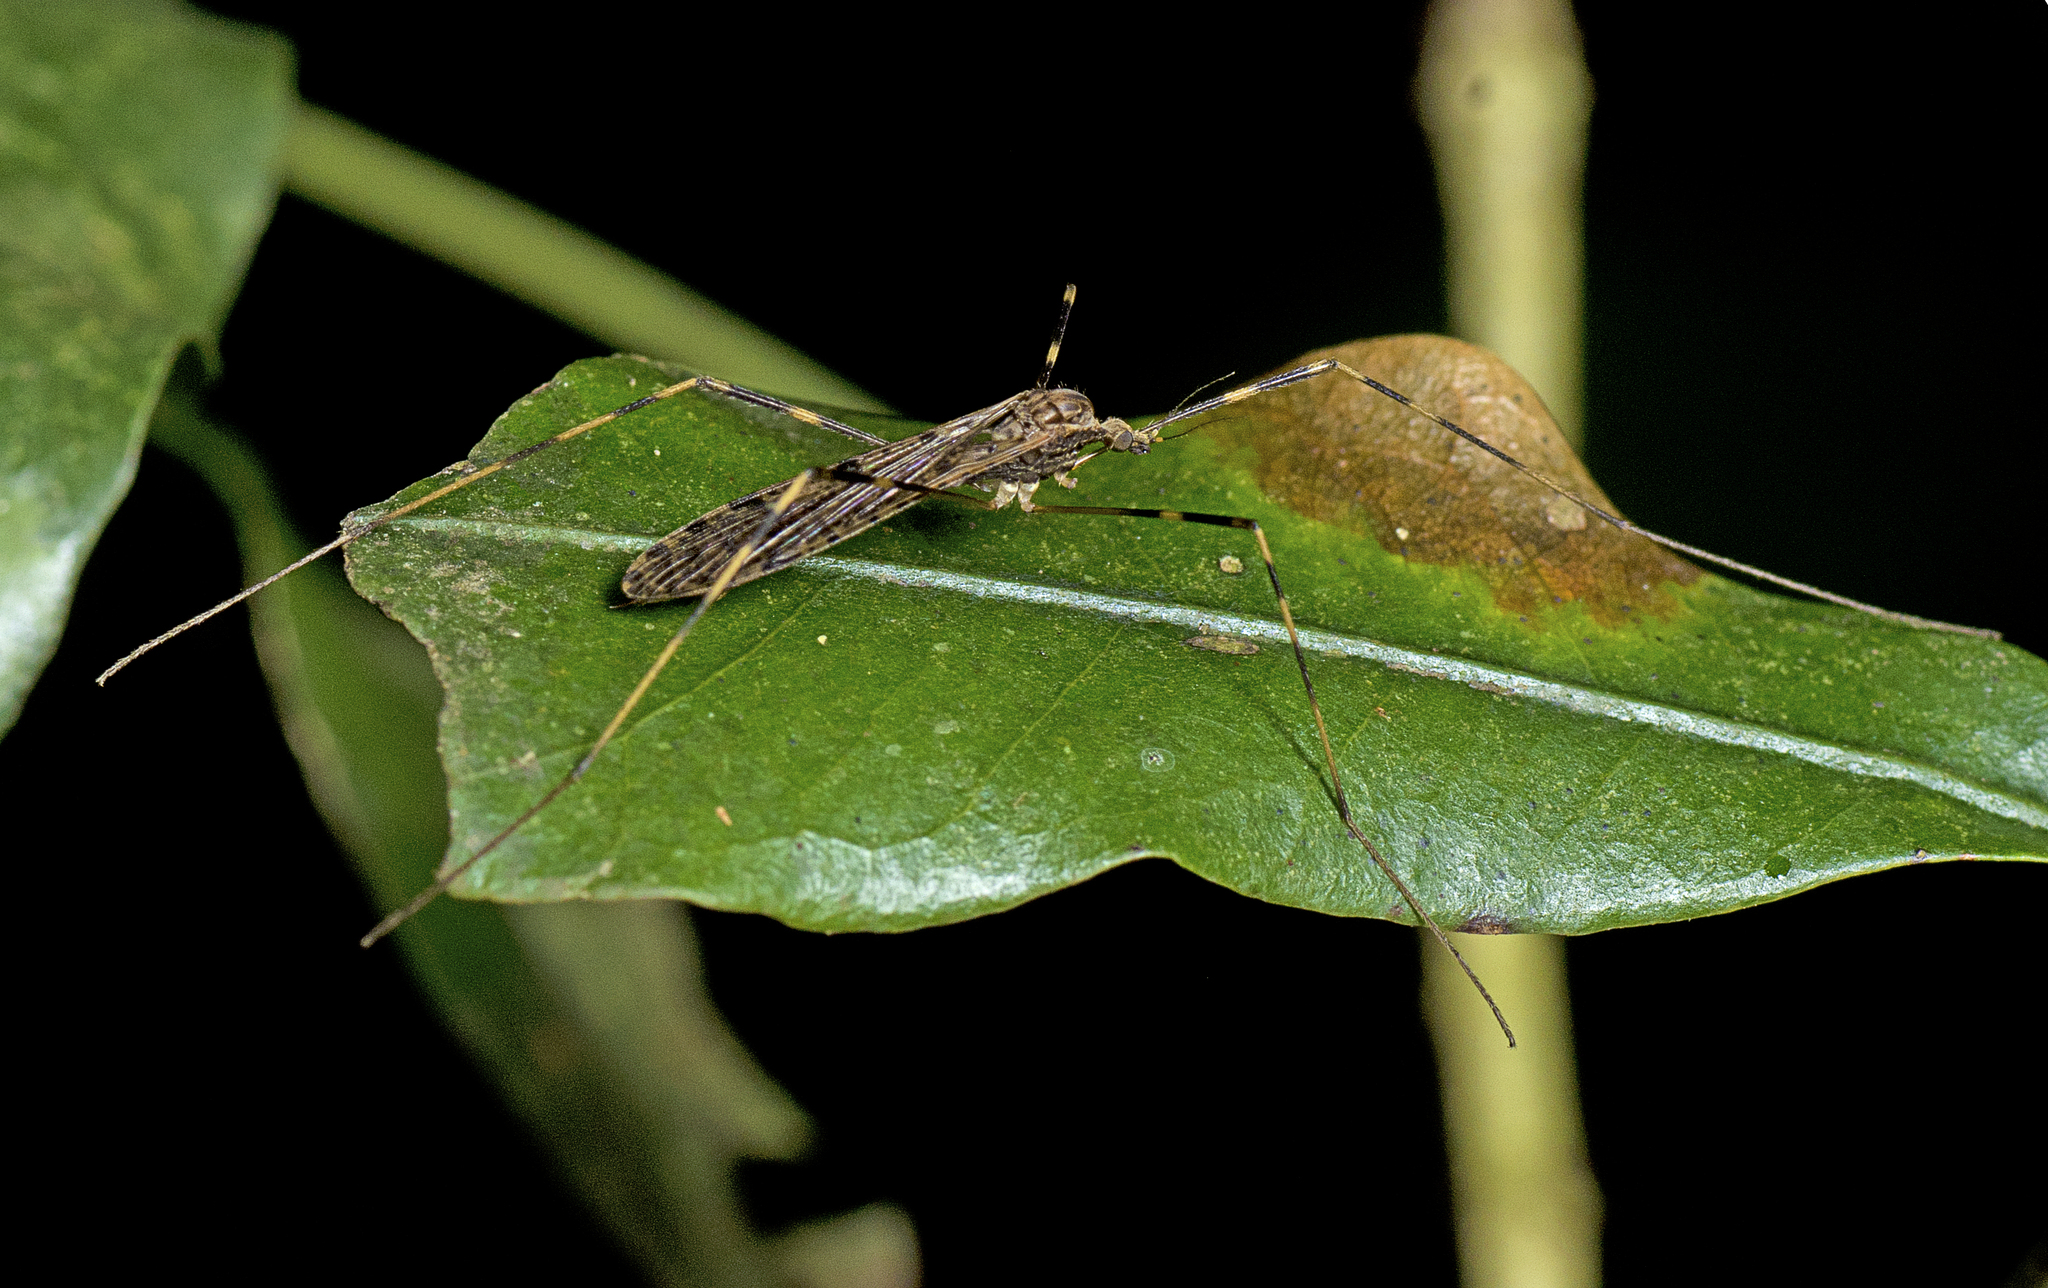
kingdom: Animalia
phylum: Arthropoda
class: Insecta
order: Diptera
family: Limoniidae
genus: Epiphragma
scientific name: Epiphragma hardyi
